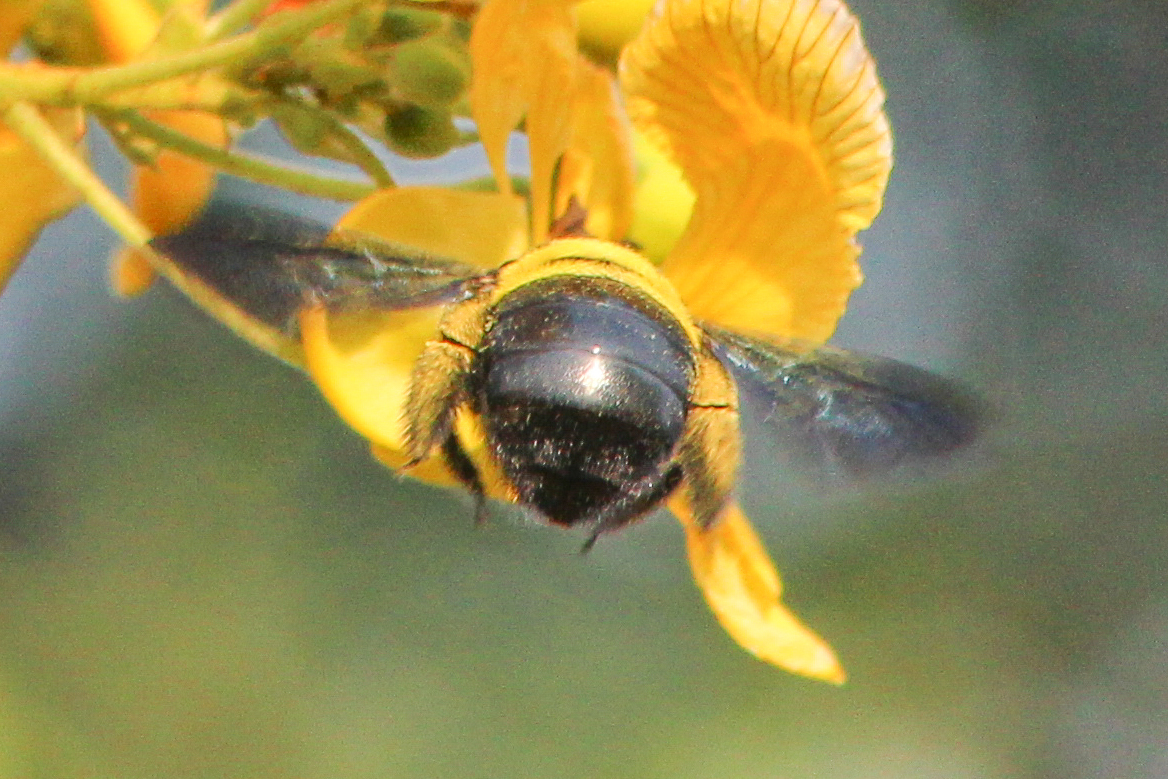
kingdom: Animalia
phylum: Arthropoda
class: Insecta
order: Hymenoptera
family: Apidae
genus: Xylocopa
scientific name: Xylocopa caffra
